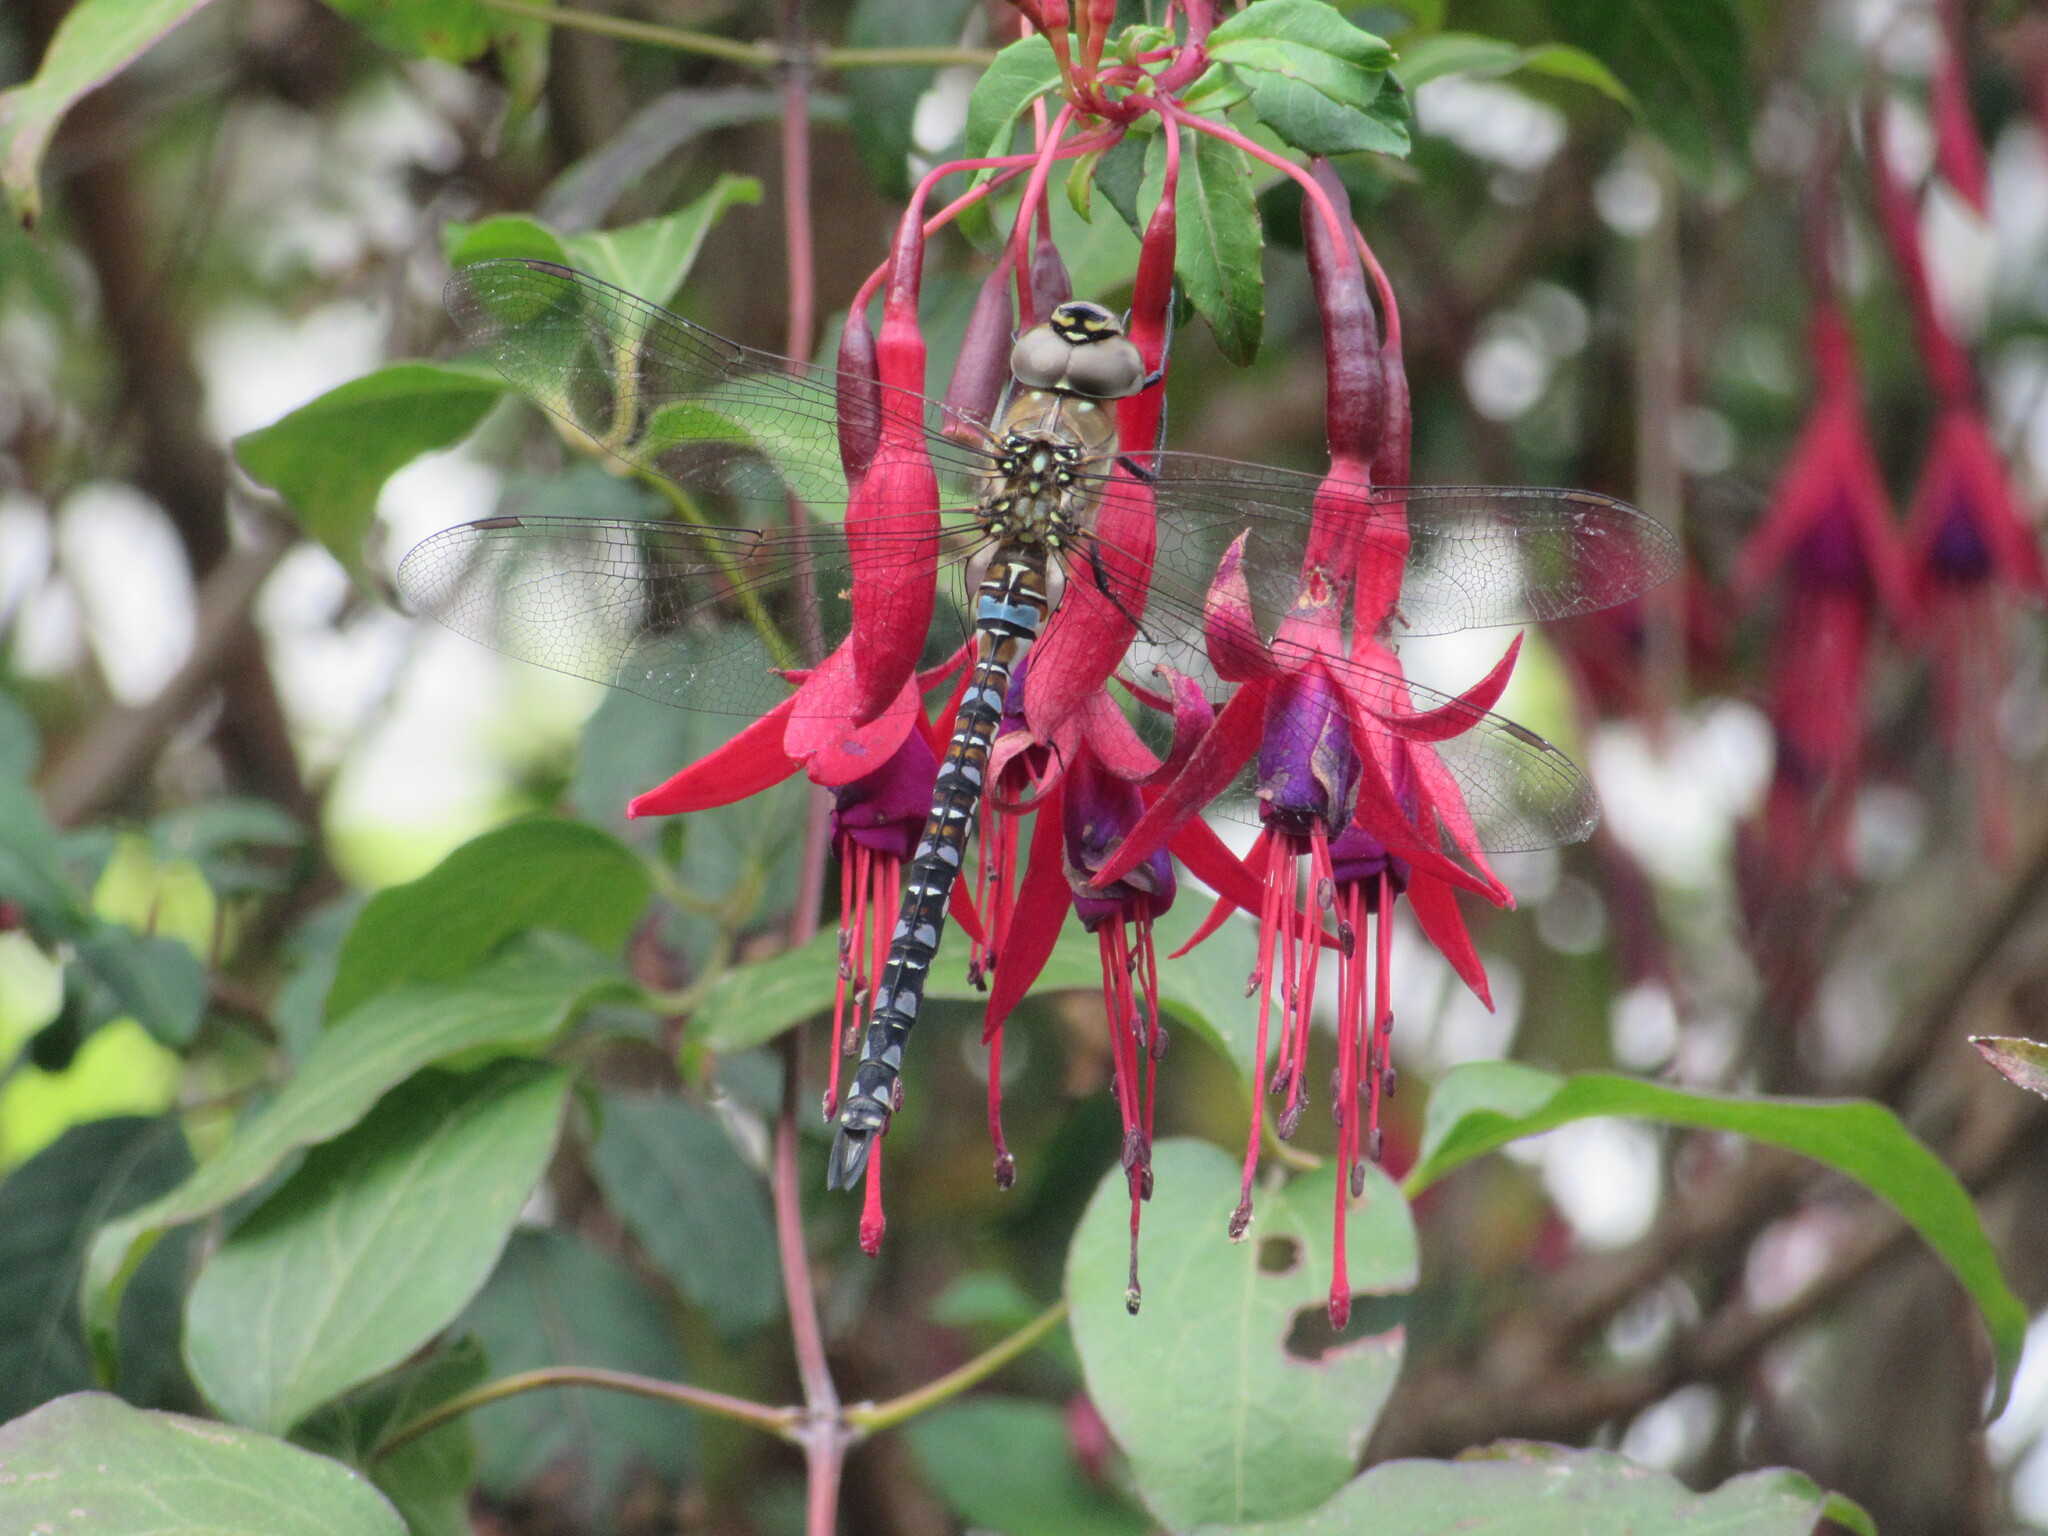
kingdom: Animalia
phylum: Arthropoda
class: Insecta
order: Odonata
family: Aeshnidae
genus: Aeshna
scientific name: Aeshna mixta
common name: Migrant hawker
